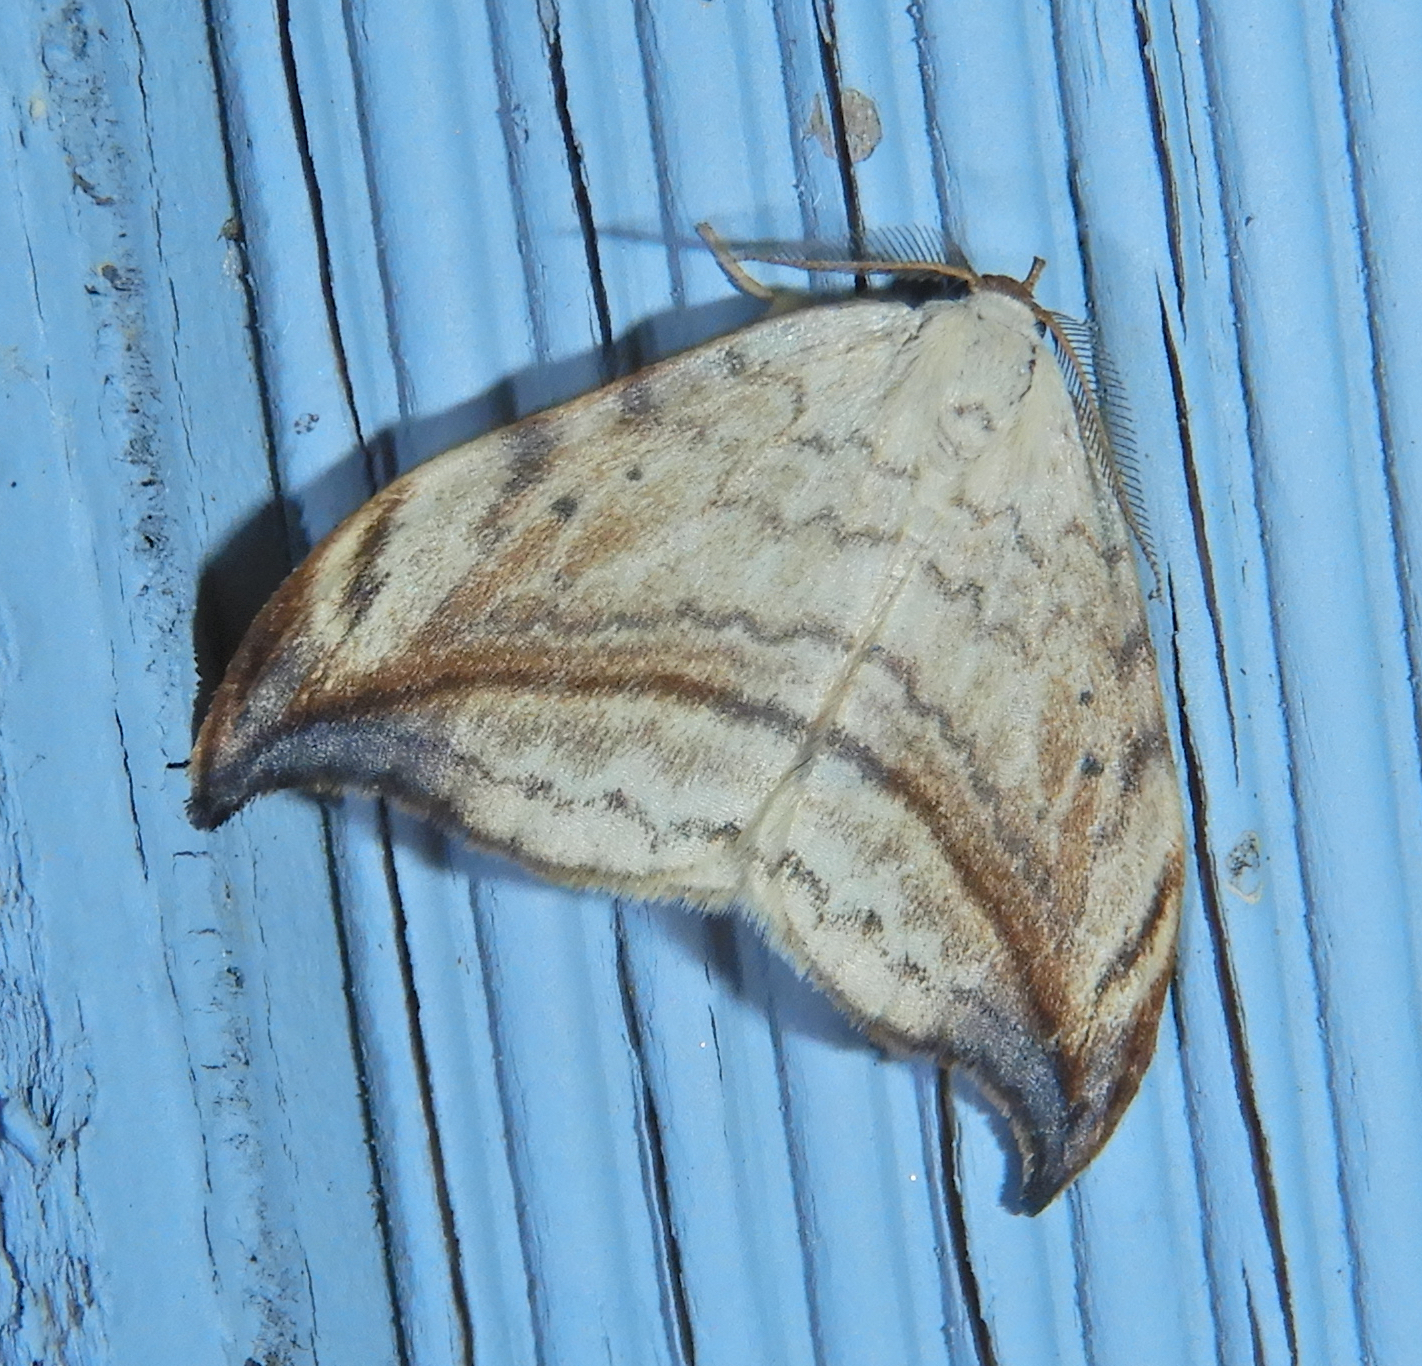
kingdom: Animalia
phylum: Arthropoda
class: Insecta
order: Lepidoptera
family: Drepanidae
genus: Drepana
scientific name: Drepana arcuata
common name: Arched hooktip moth
